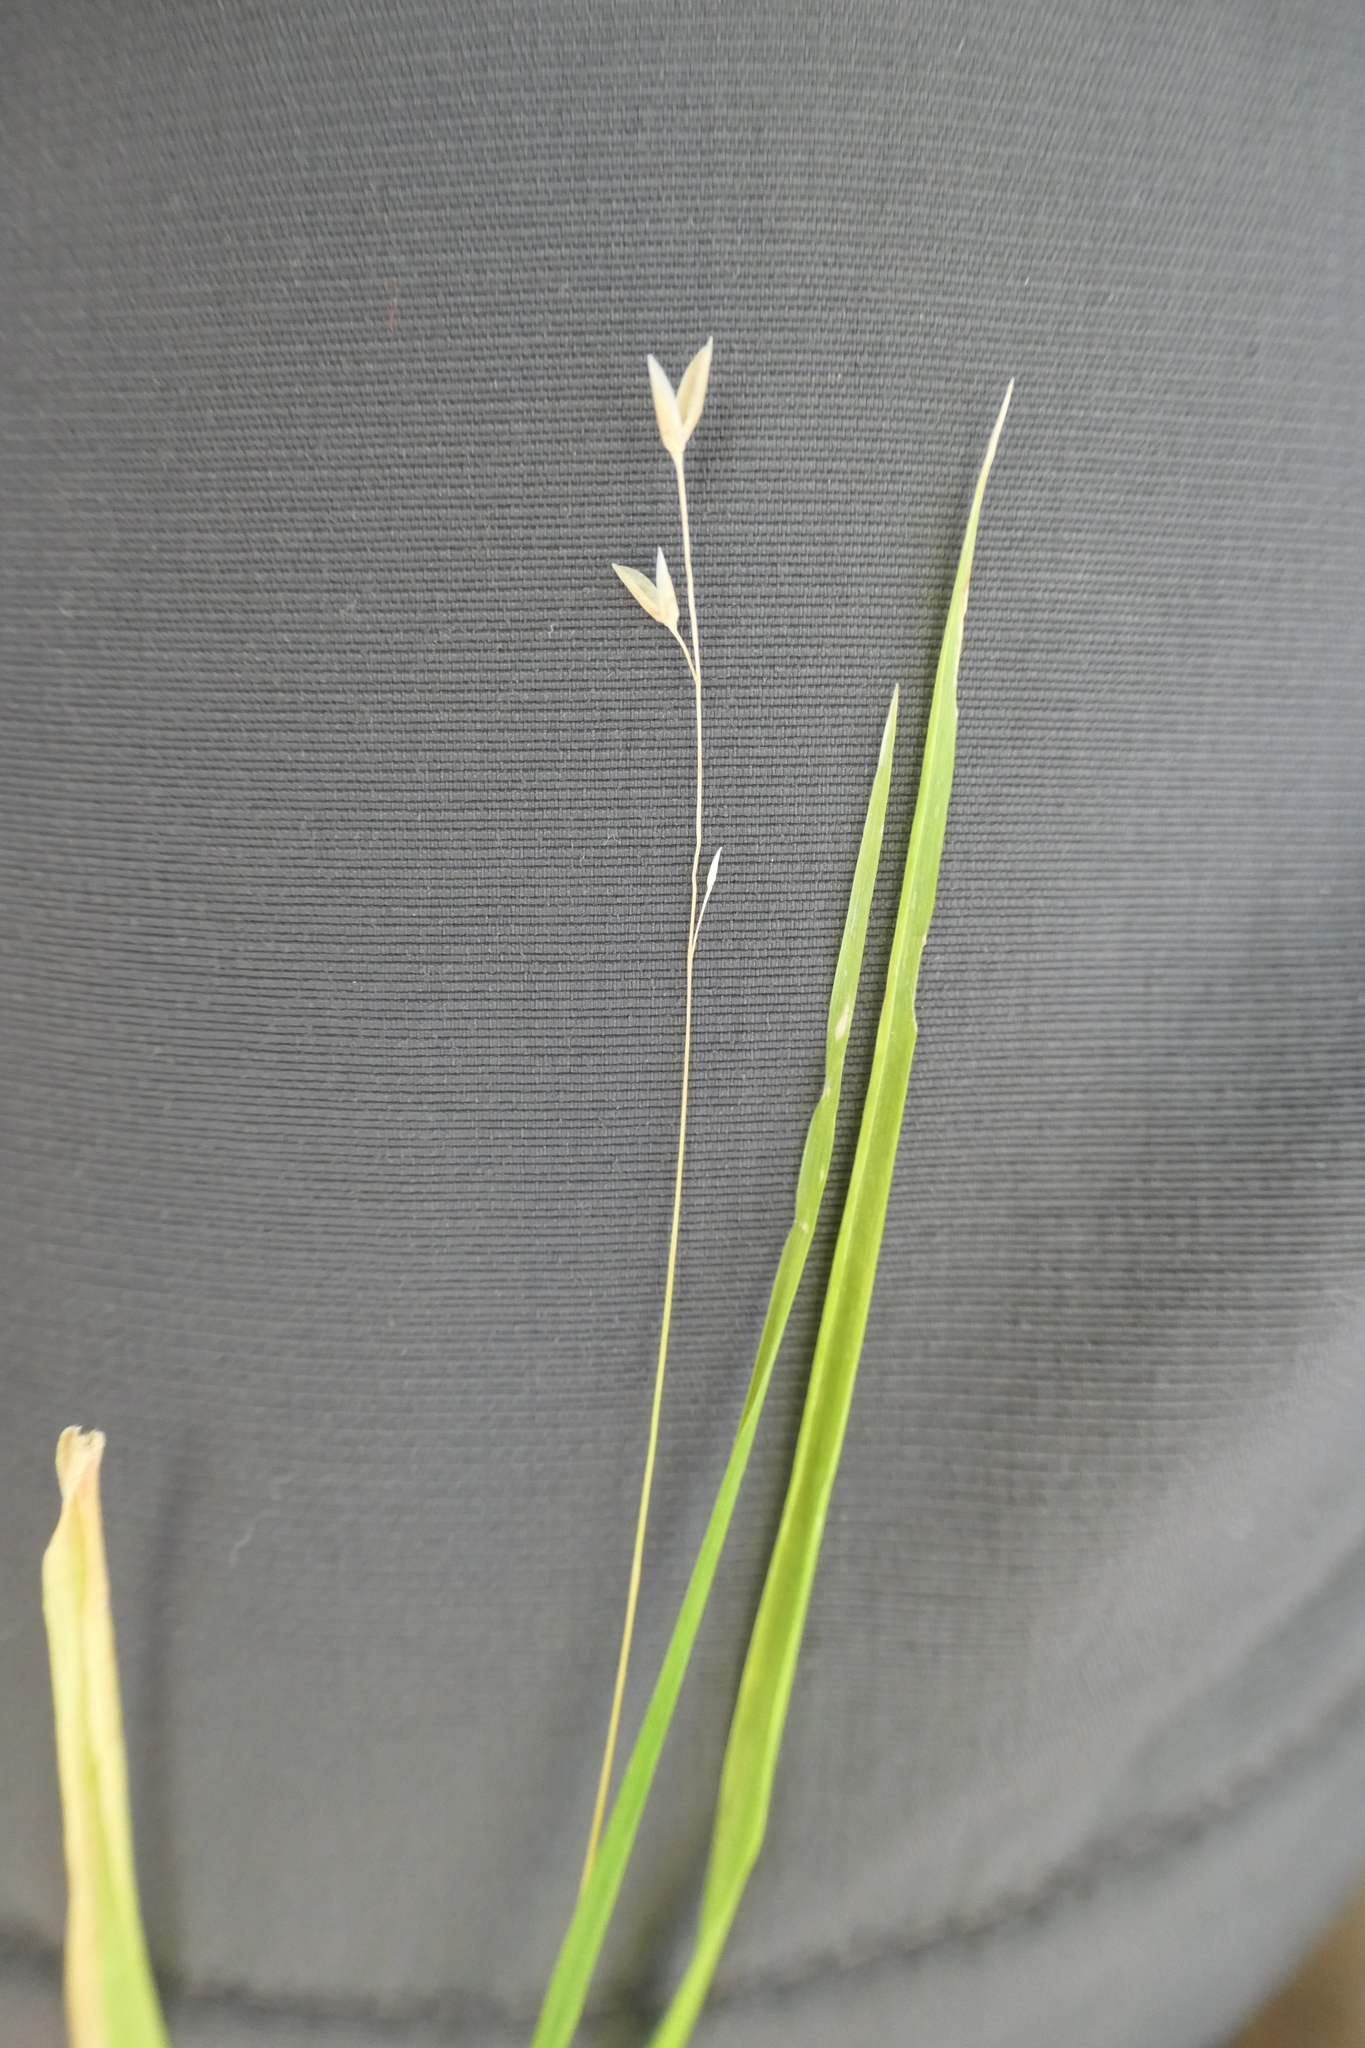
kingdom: Plantae
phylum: Tracheophyta
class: Liliopsida
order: Poales
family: Poaceae
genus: Melica
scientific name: Melica uniflora
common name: Wood melick
